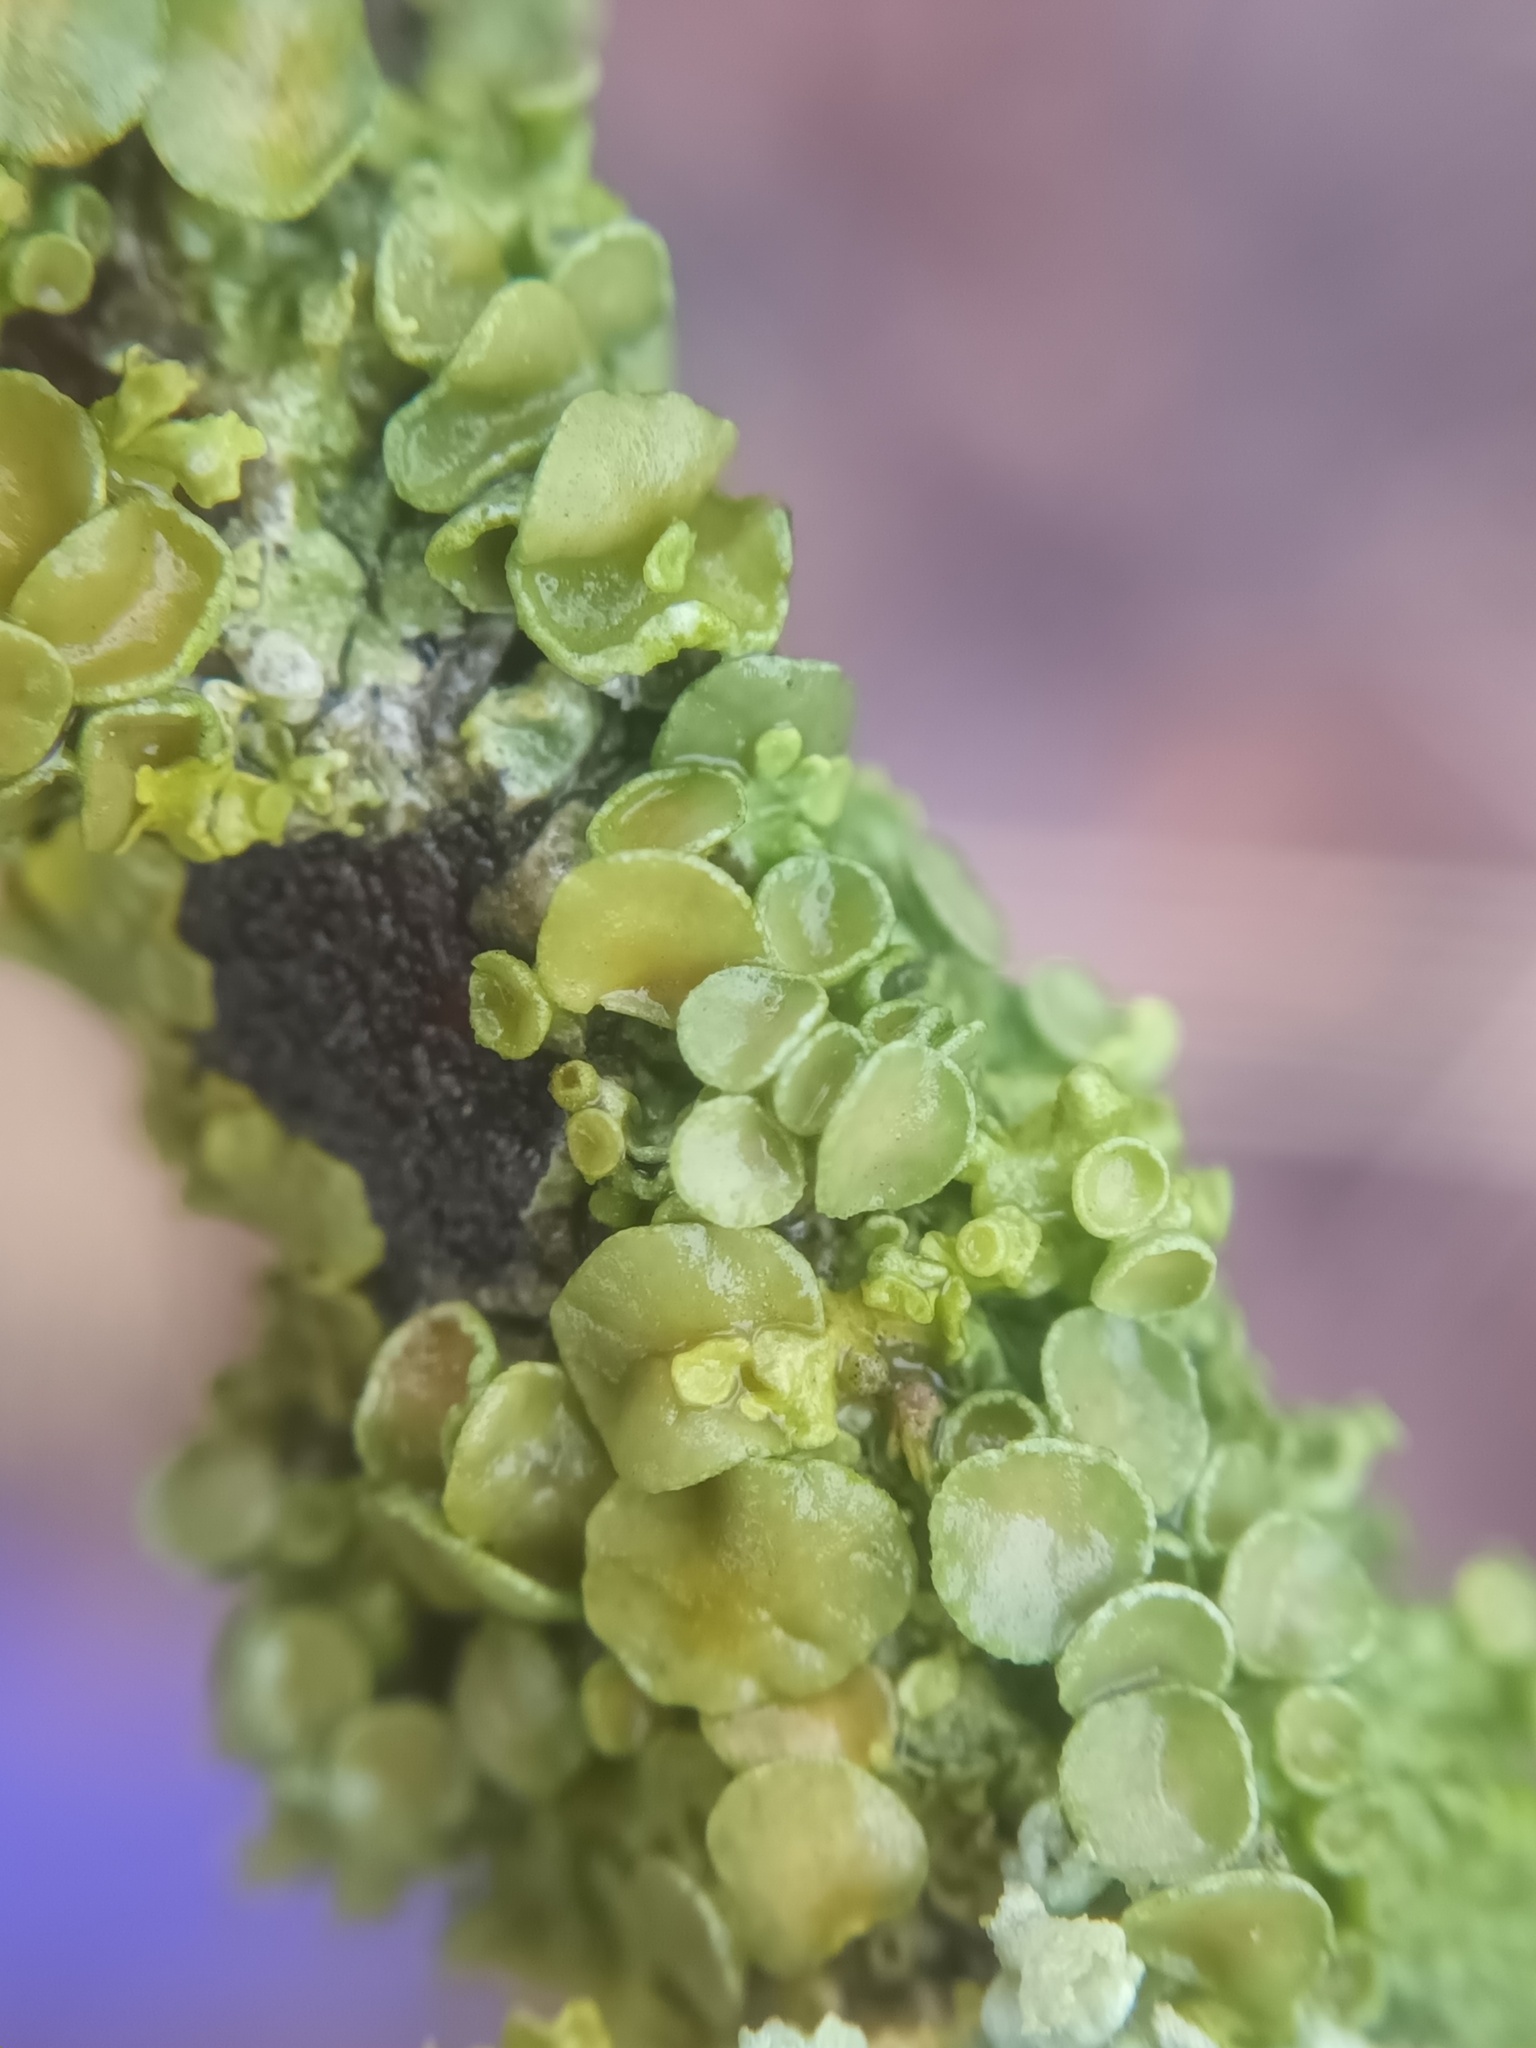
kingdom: Fungi
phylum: Ascomycota
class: Lecanoromycetes
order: Teloschistales
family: Teloschistaceae
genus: Xanthoria
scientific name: Xanthoria parietina
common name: Common orange lichen
